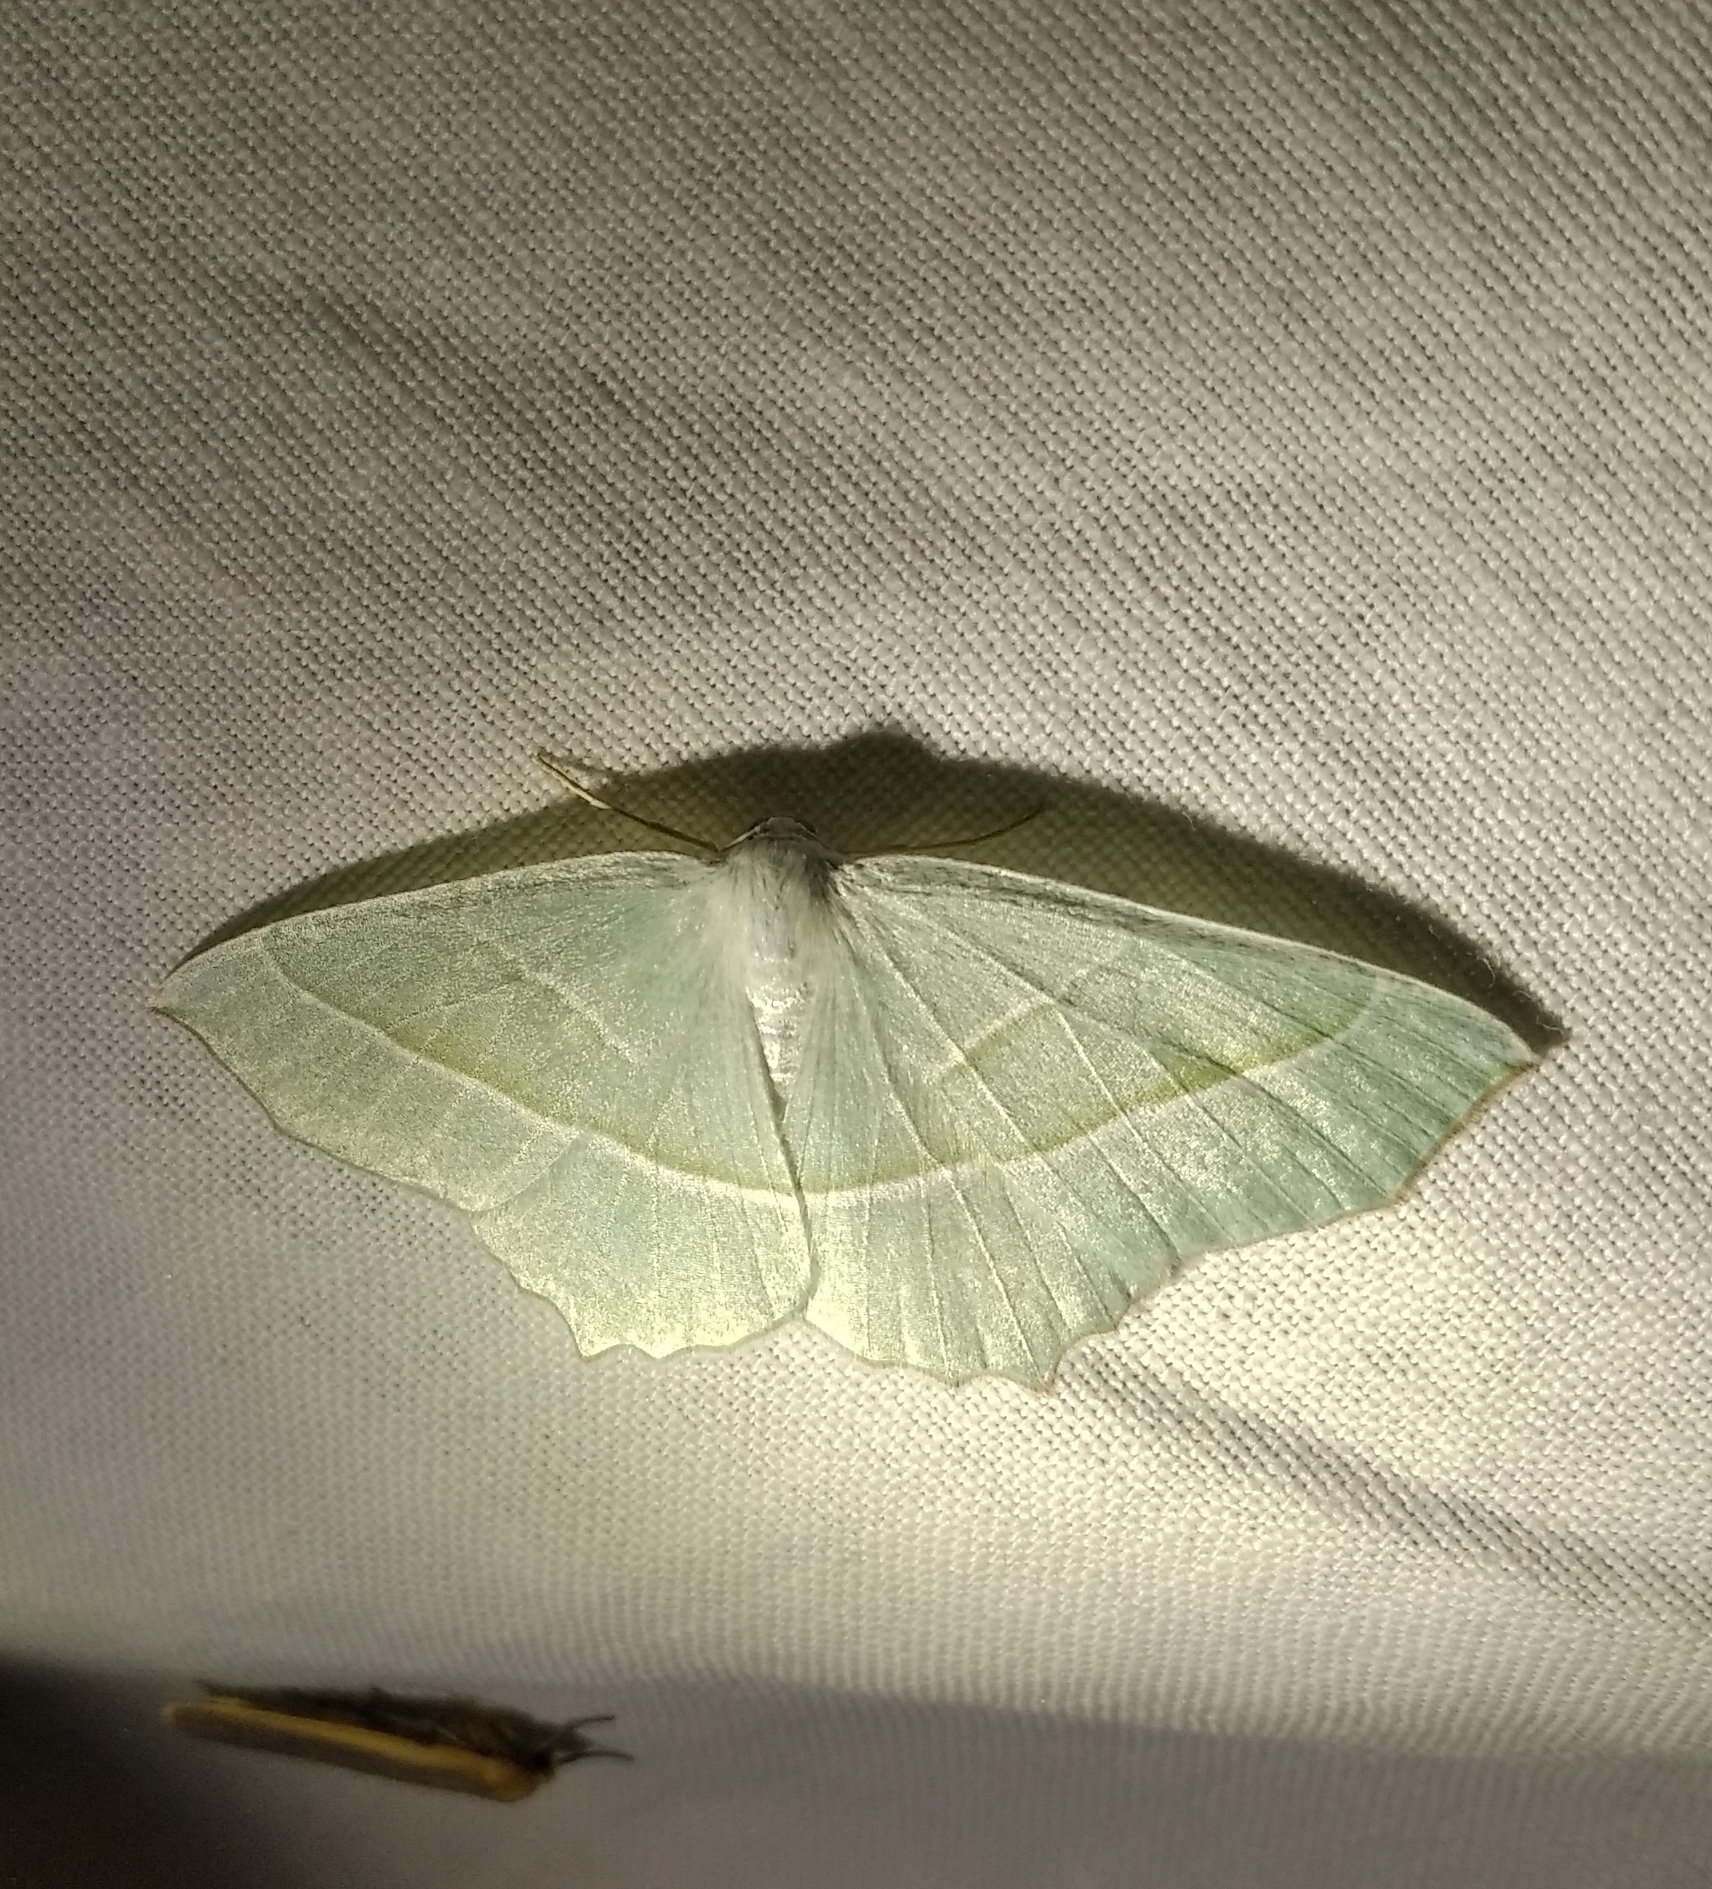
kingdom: Animalia
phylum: Arthropoda
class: Insecta
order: Lepidoptera
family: Geometridae
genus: Campaea
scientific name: Campaea margaritaria
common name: Light emerald
